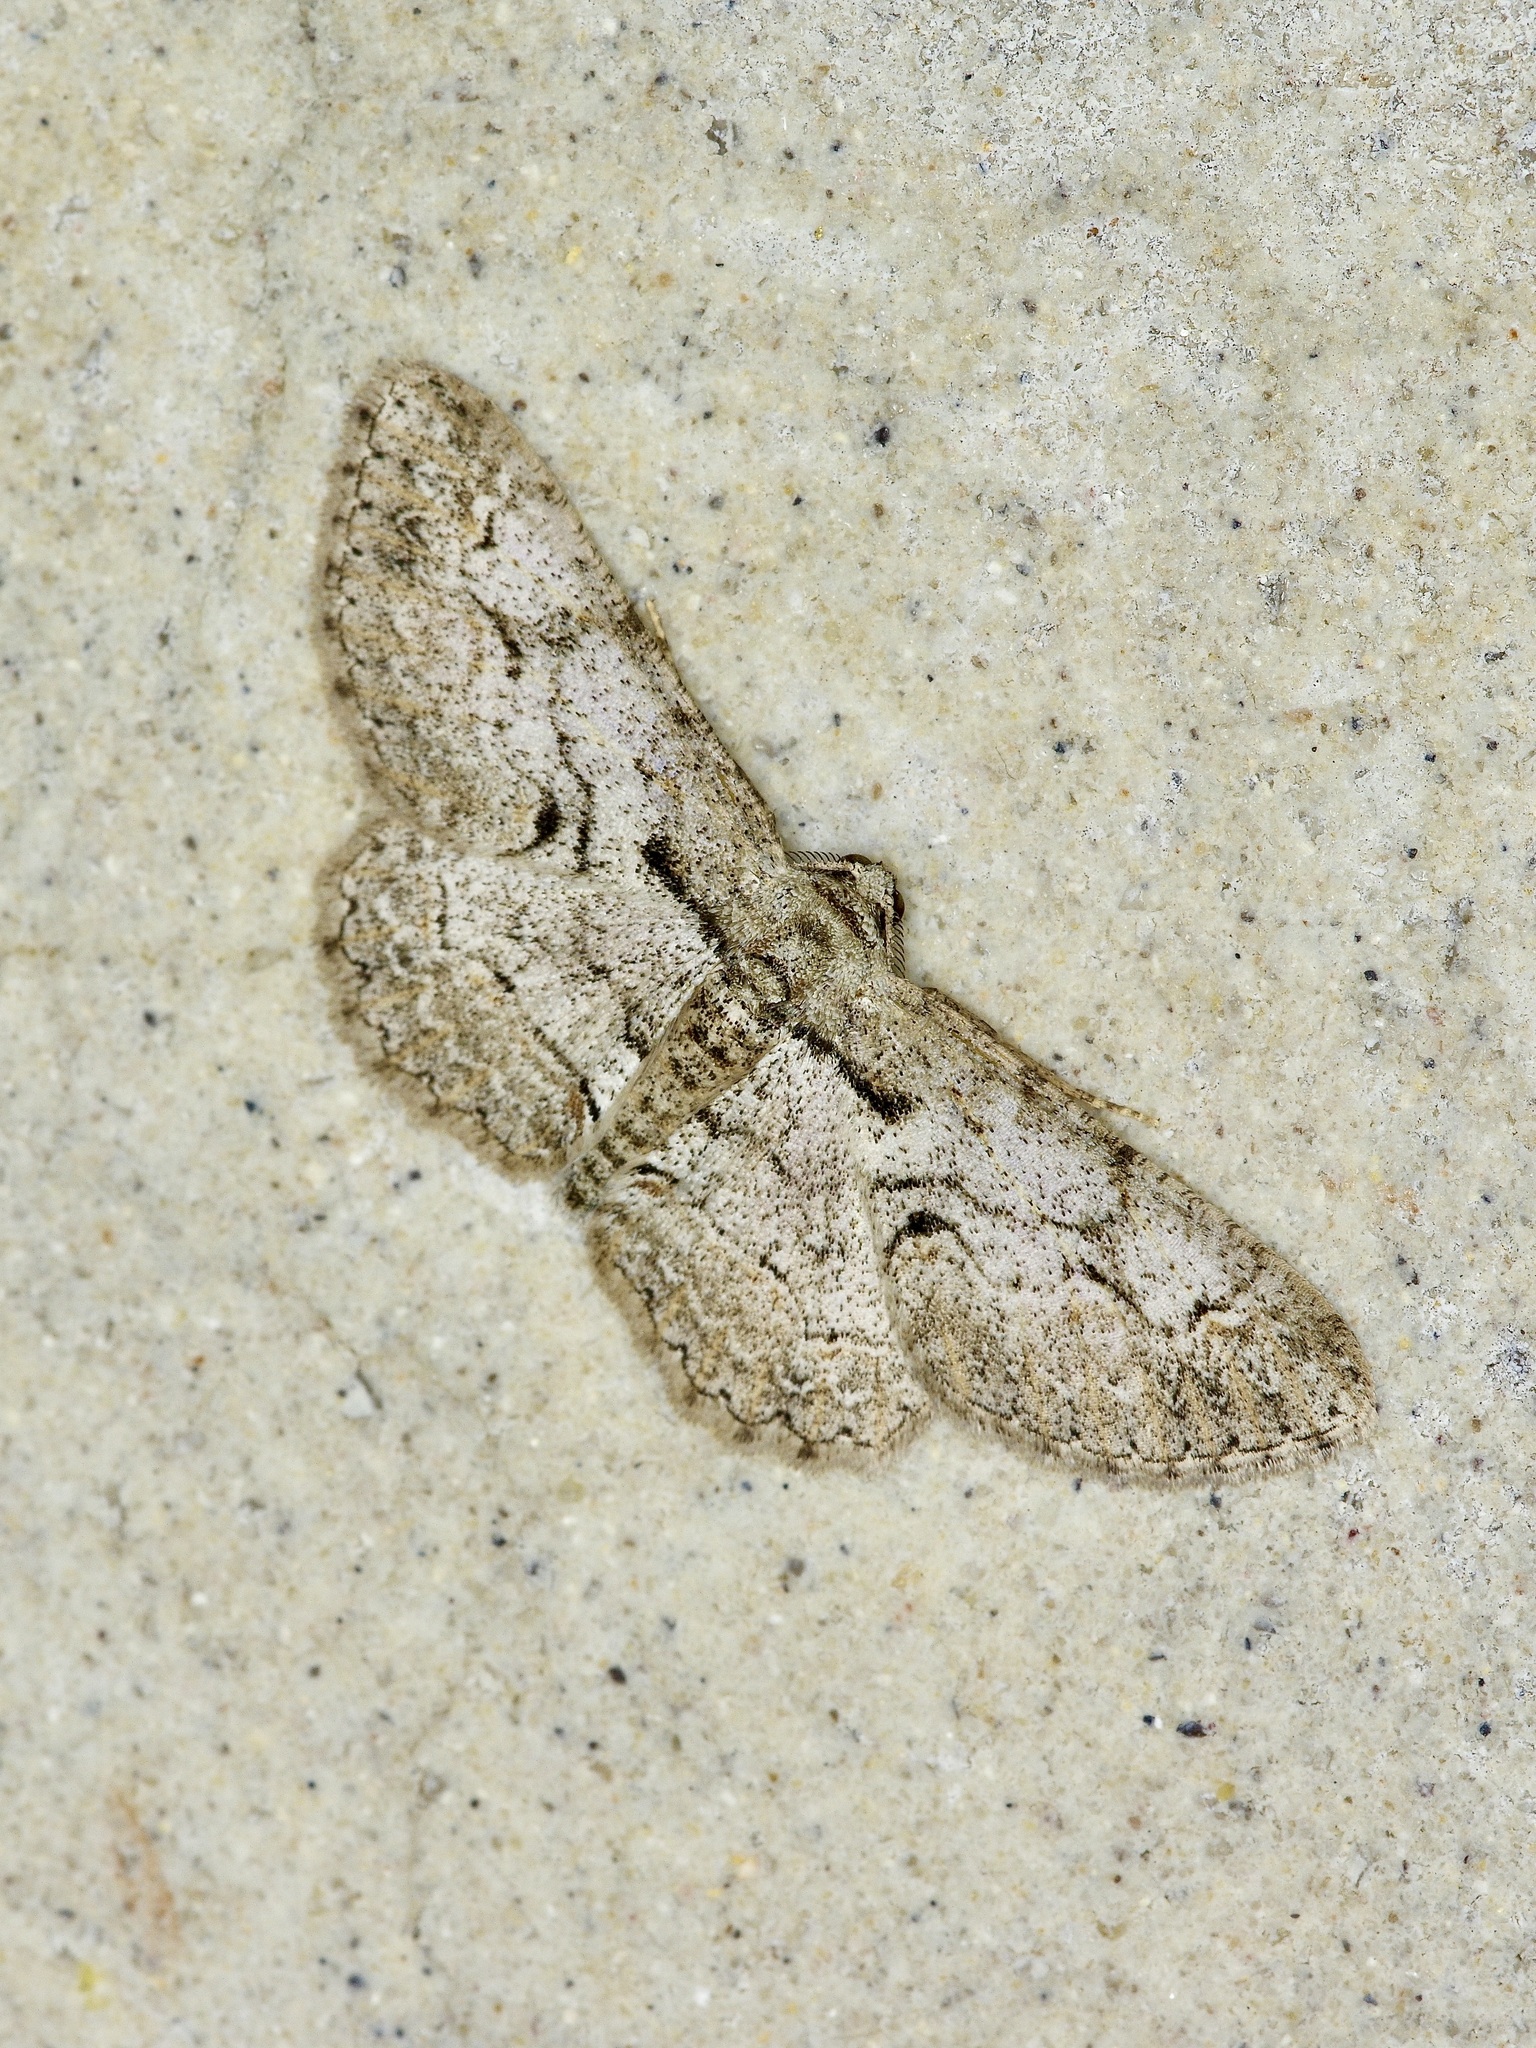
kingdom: Animalia
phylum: Arthropoda
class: Insecta
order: Lepidoptera
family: Geometridae
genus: Iridopsis
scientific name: Iridopsis defectaria
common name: Brown-shaded gray
